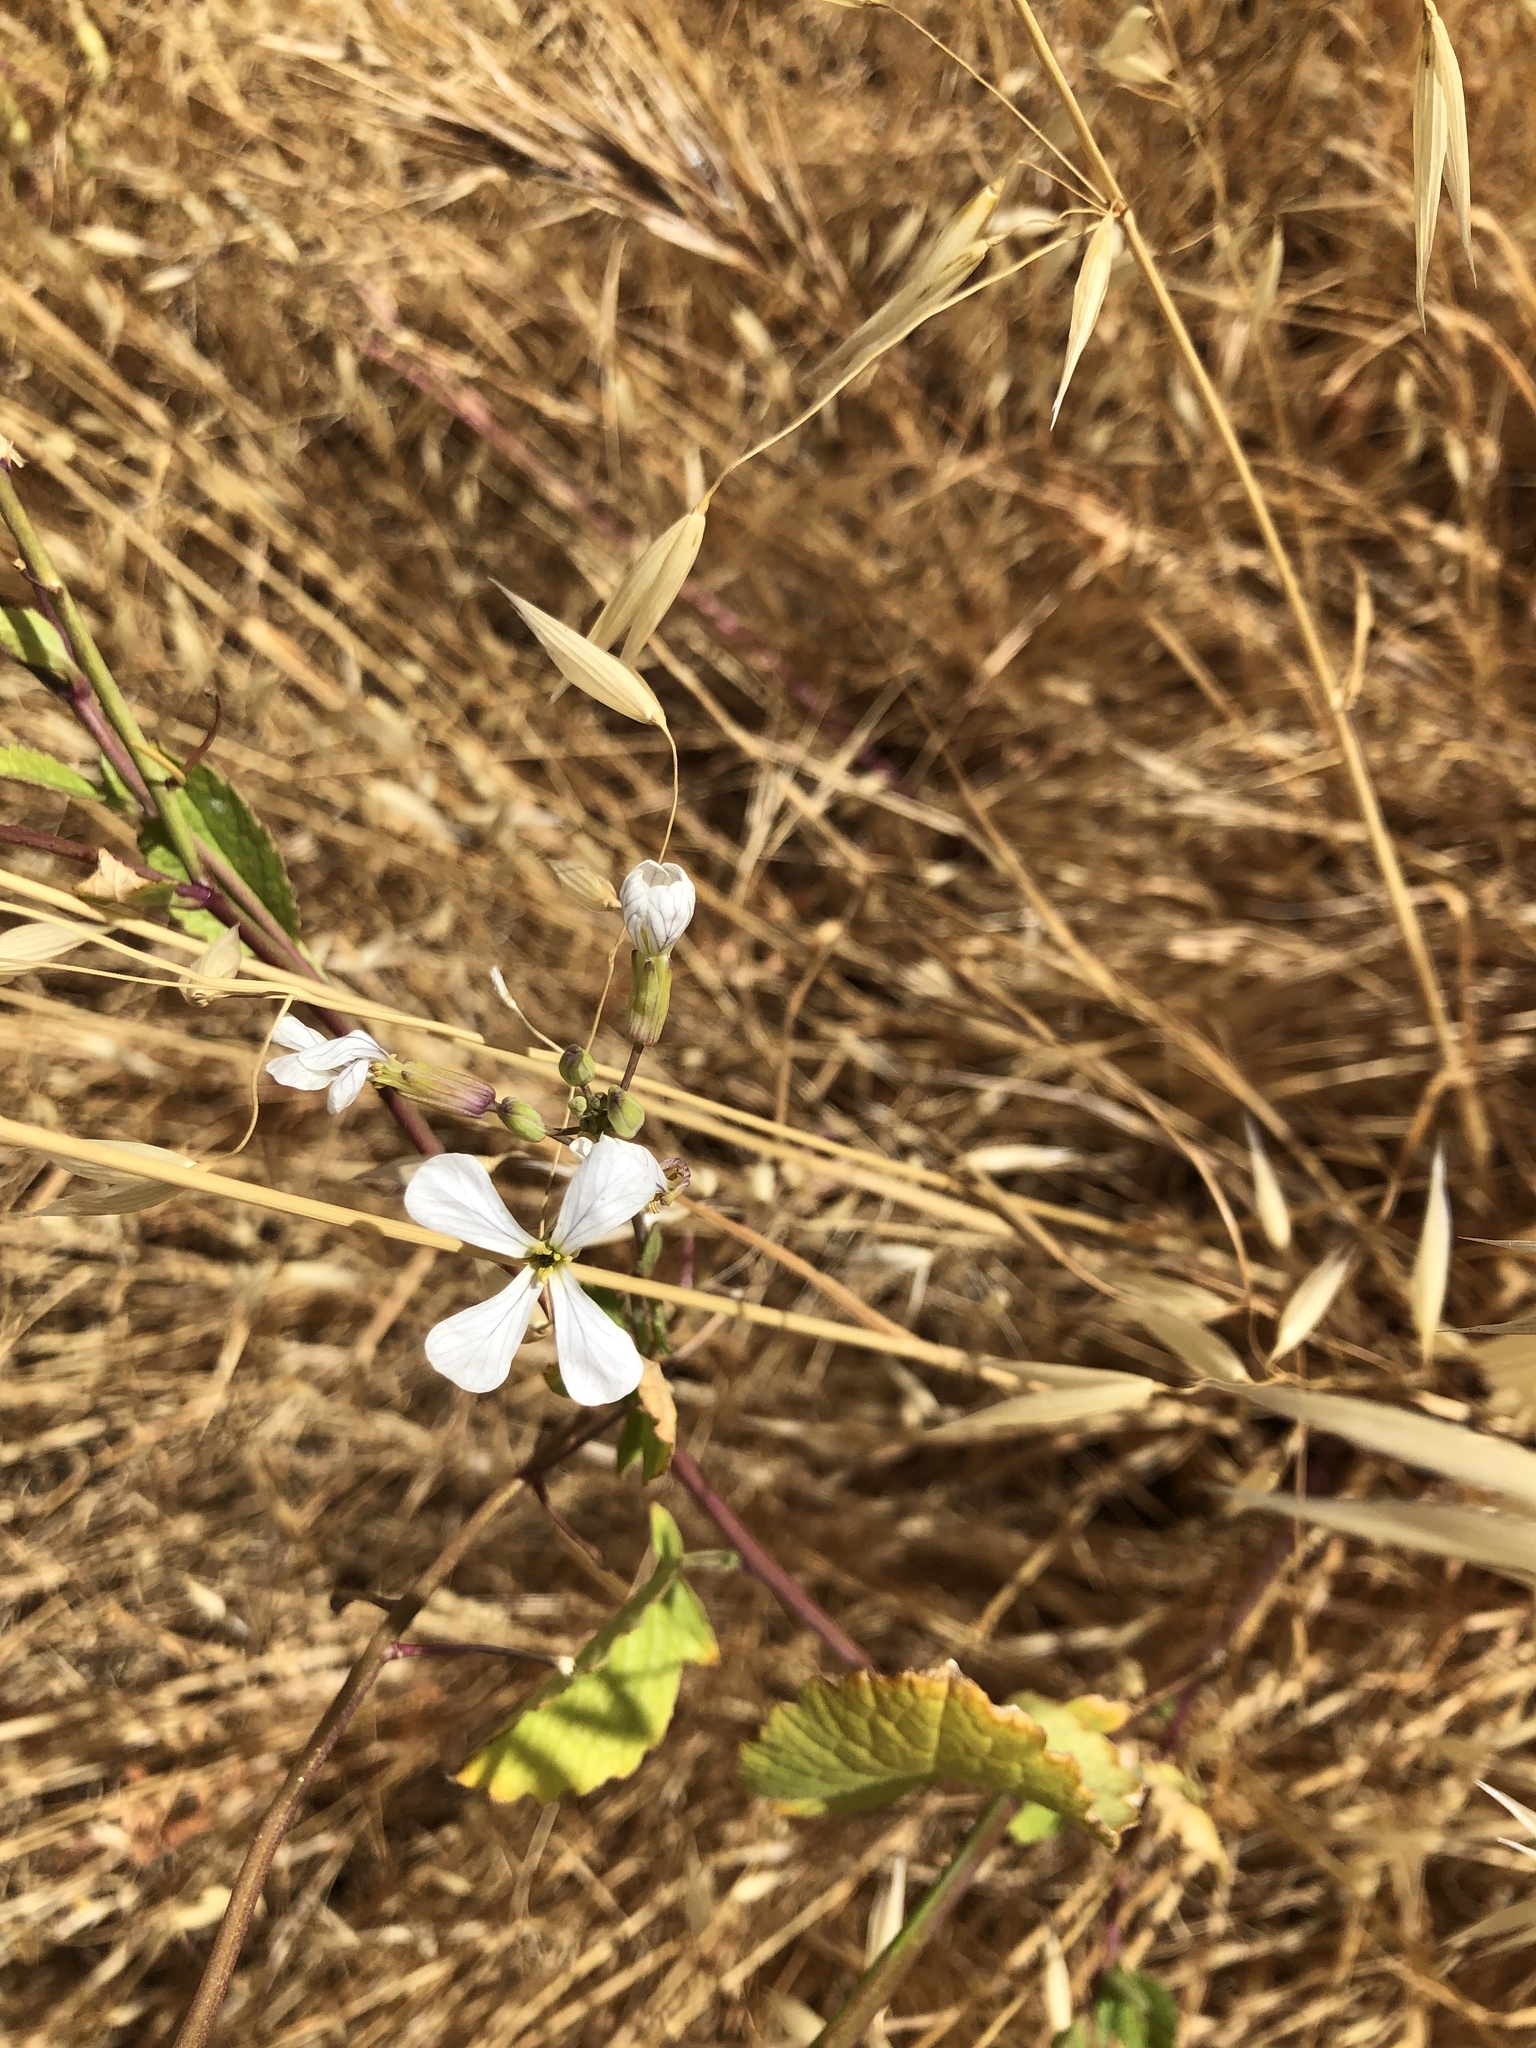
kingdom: Plantae
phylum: Tracheophyta
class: Magnoliopsida
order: Brassicales
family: Brassicaceae
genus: Raphanus
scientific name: Raphanus sativus
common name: Cultivated radish
